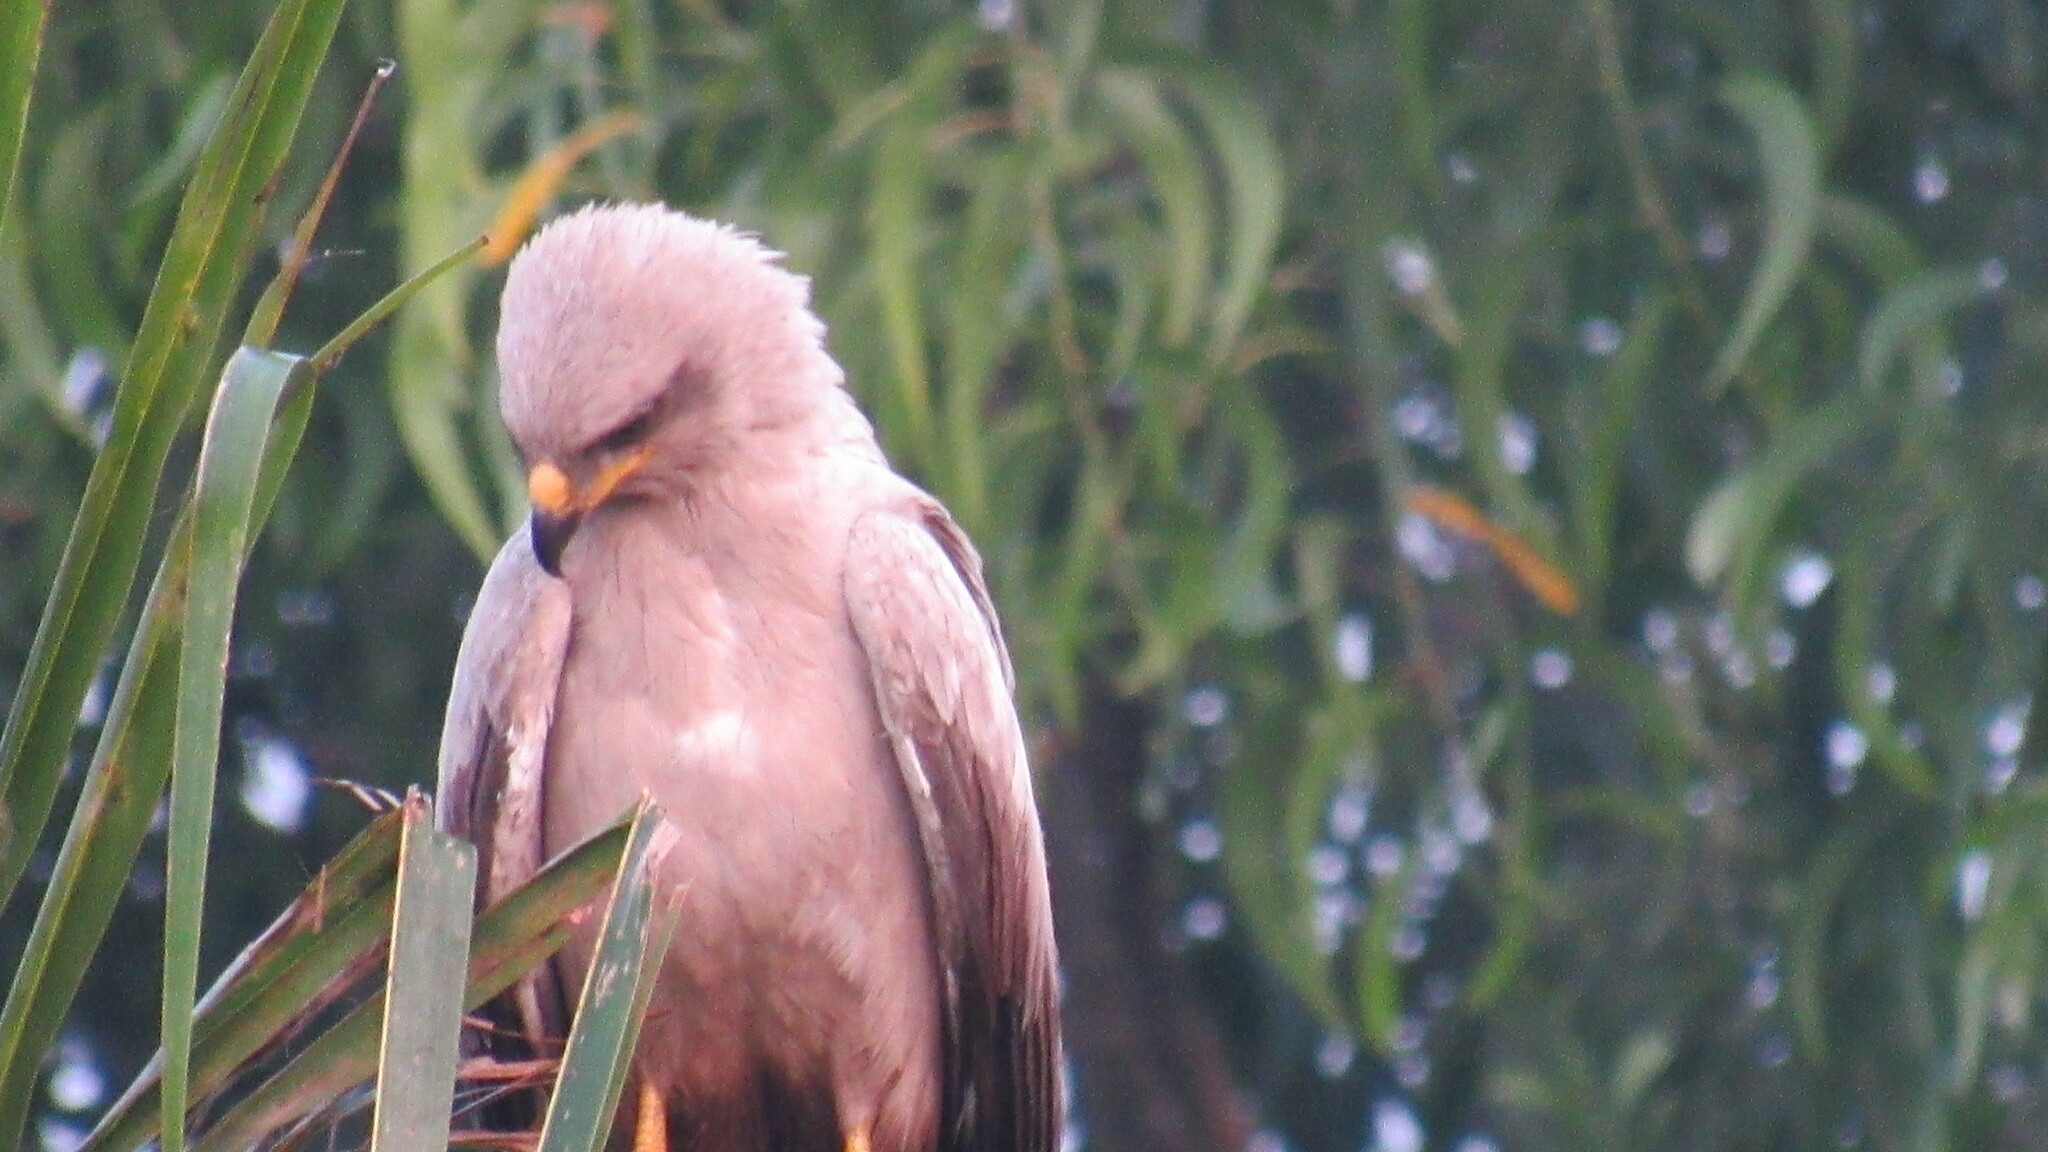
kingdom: Animalia
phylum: Chordata
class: Aves
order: Accipitriformes
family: Accipitridae
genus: Aquila
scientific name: Aquila rapax
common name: Tawny eagle
